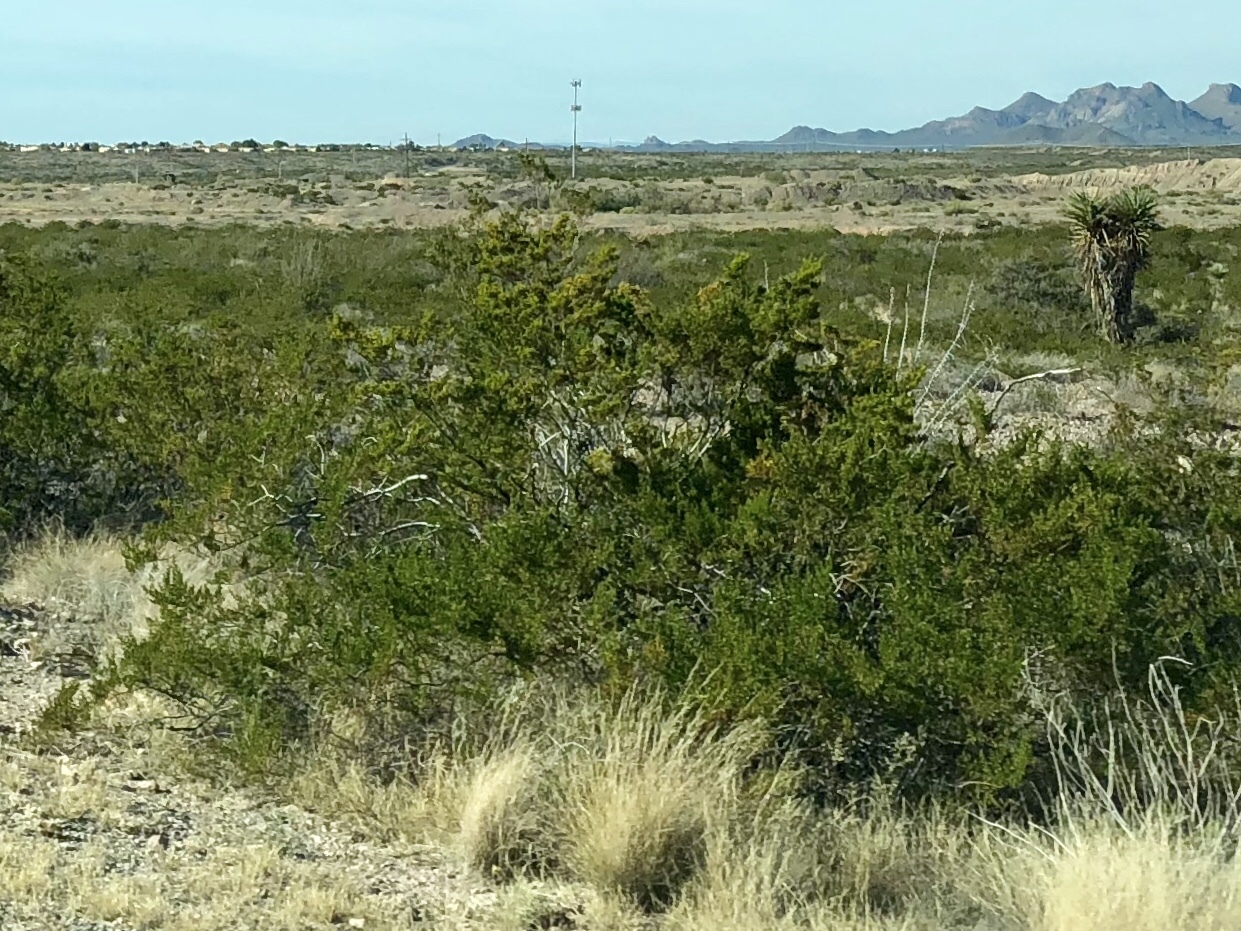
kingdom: Plantae
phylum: Tracheophyta
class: Magnoliopsida
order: Zygophyllales
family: Zygophyllaceae
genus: Larrea
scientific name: Larrea tridentata
